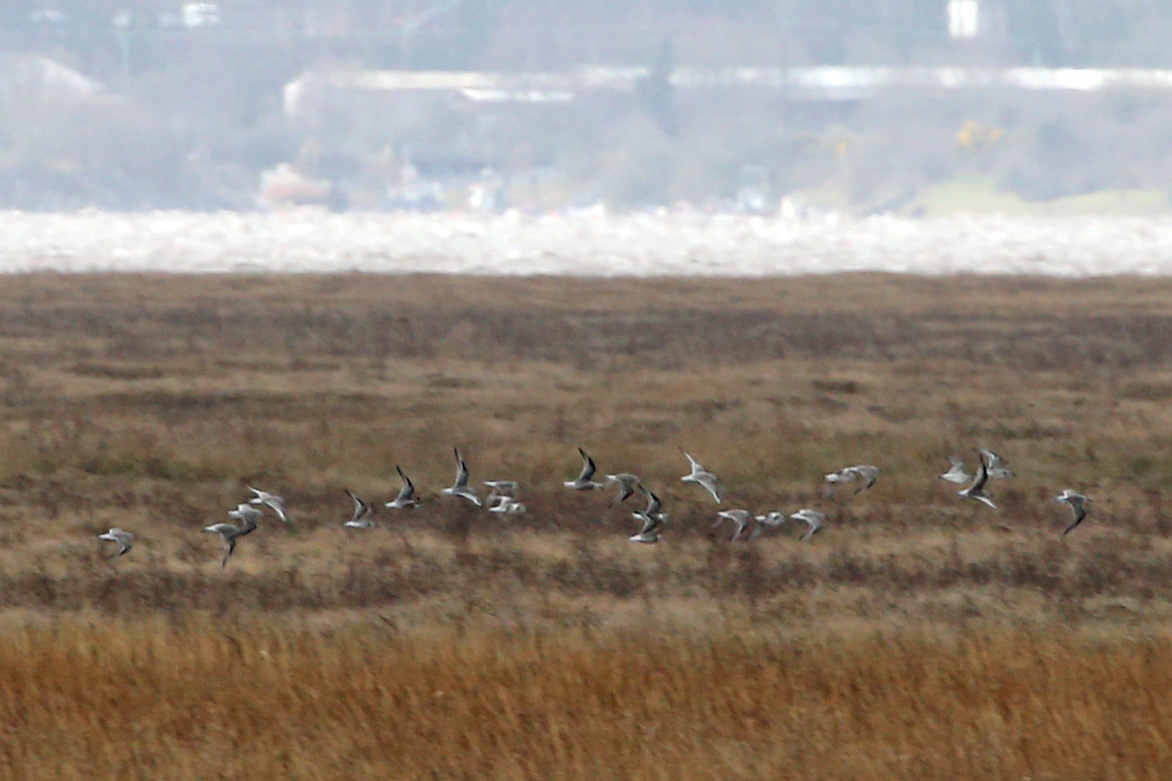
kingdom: Animalia
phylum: Chordata
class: Aves
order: Charadriiformes
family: Scolopacidae
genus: Tringa
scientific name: Tringa totanus
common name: Common redshank
